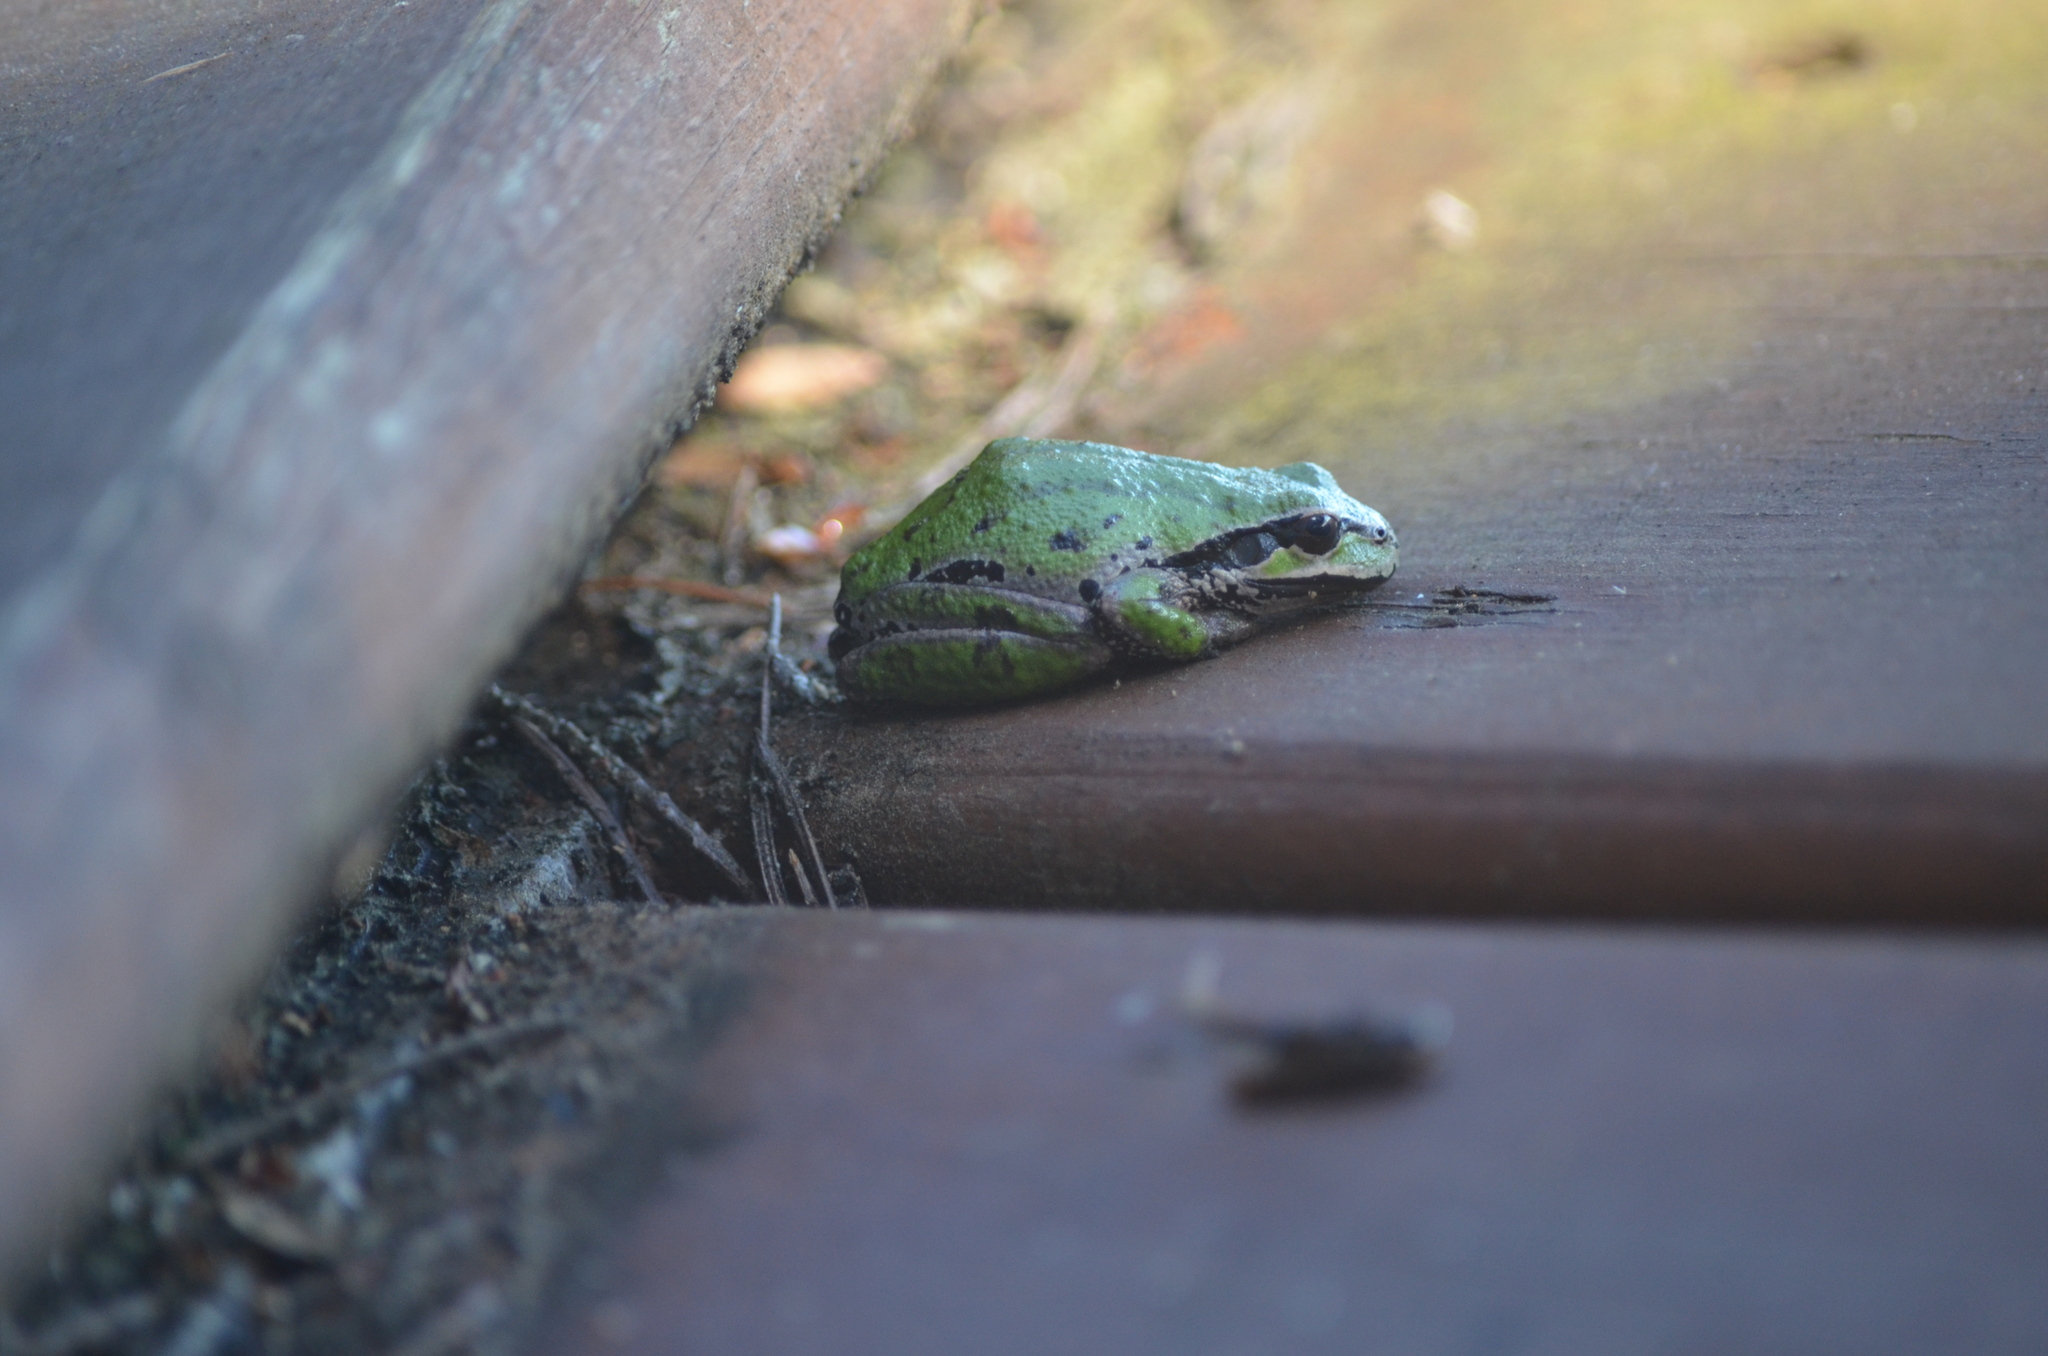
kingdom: Animalia
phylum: Chordata
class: Amphibia
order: Anura
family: Hylidae
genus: Pseudacris
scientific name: Pseudacris regilla
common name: Pacific chorus frog
